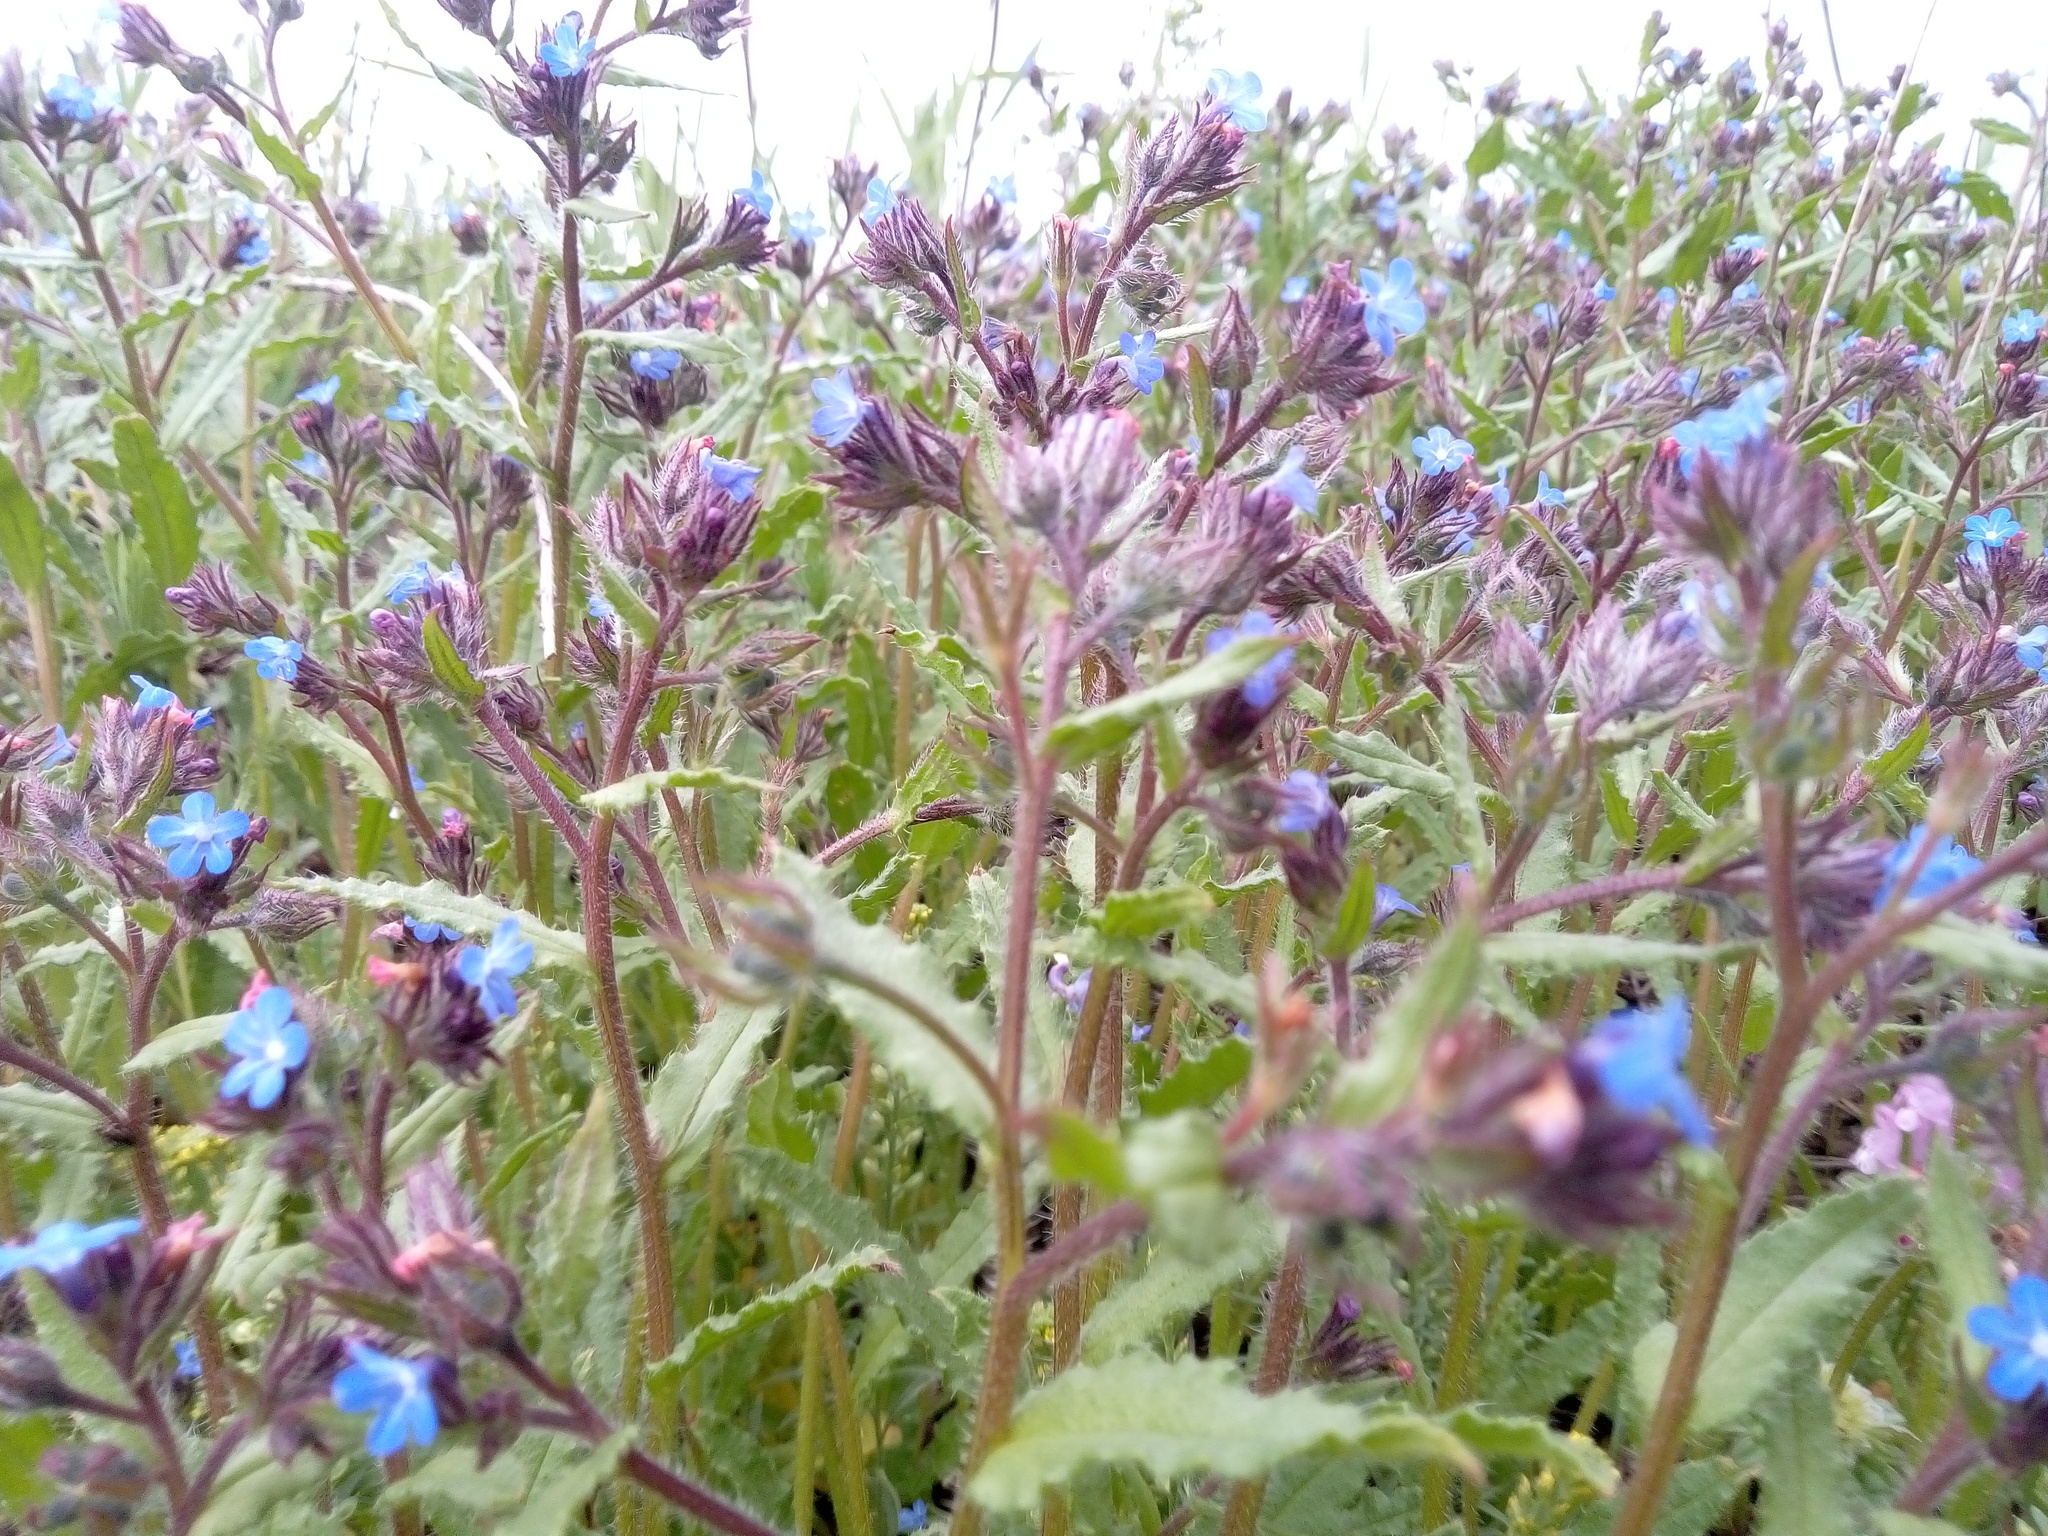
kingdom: Plantae
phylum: Tracheophyta
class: Magnoliopsida
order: Boraginales
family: Boraginaceae
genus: Lycopsis
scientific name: Lycopsis arvensis
